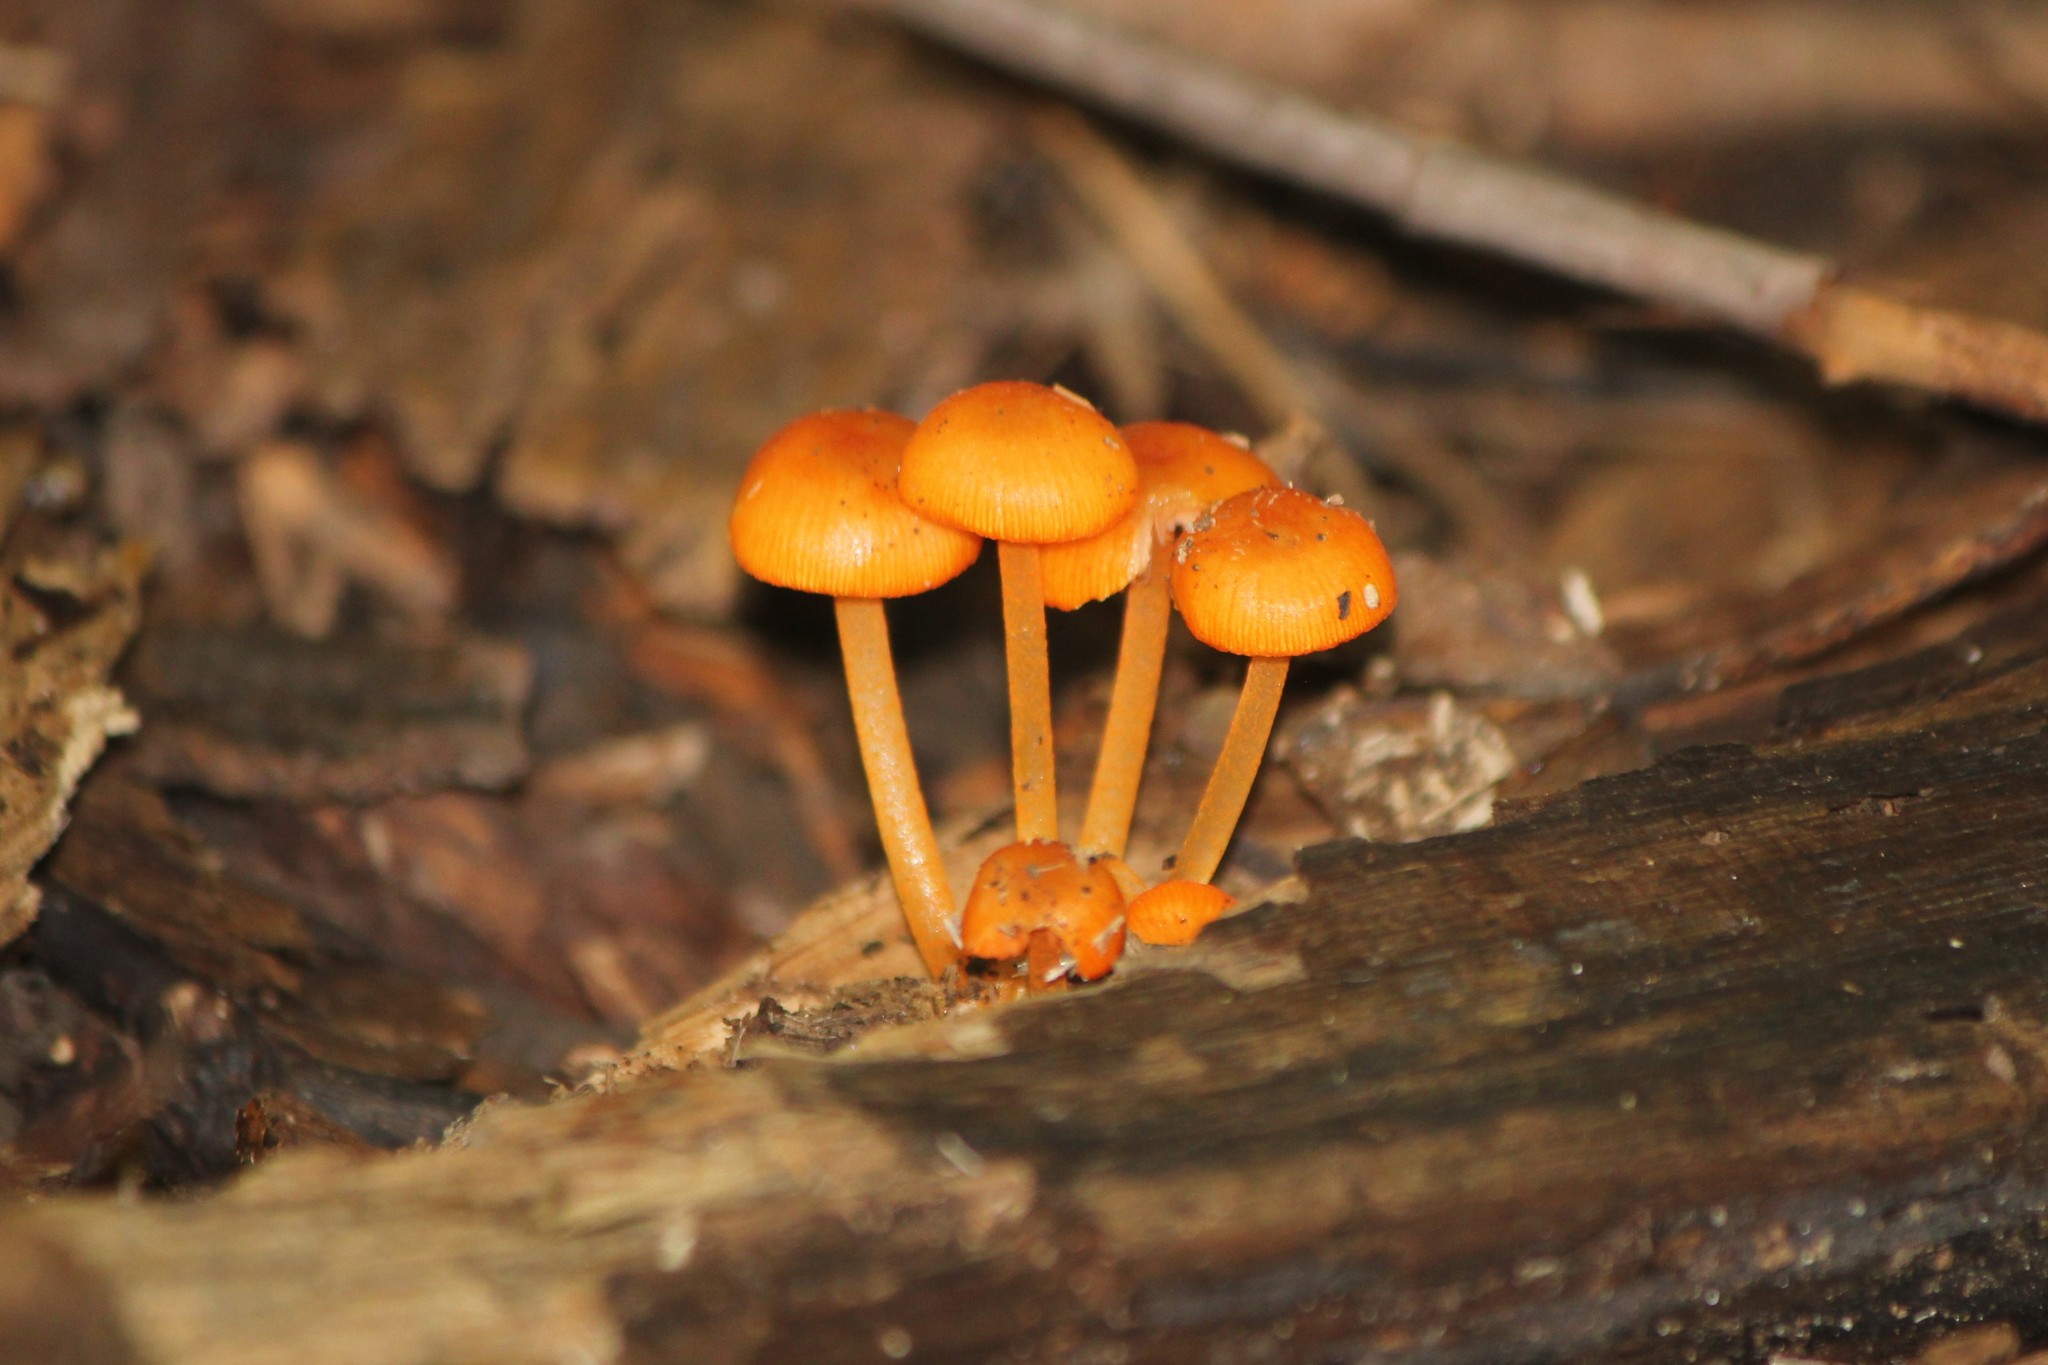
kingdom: Fungi
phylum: Basidiomycota
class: Agaricomycetes
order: Agaricales
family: Mycenaceae
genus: Mycena
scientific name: Mycena leaiana
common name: Orange mycena
